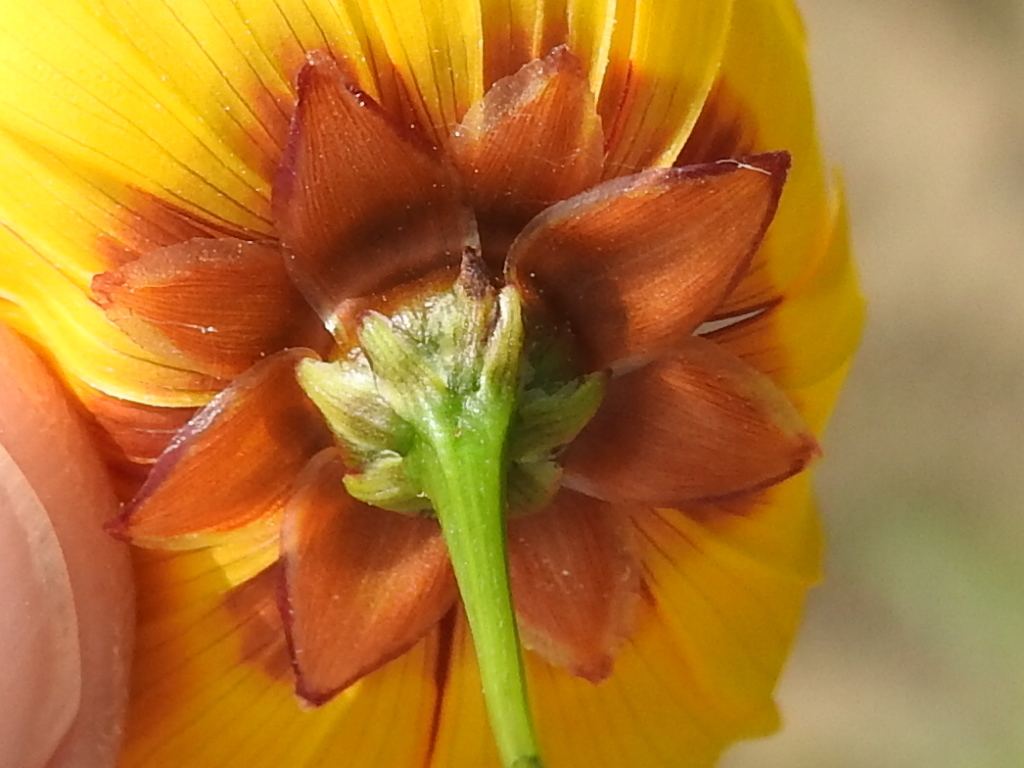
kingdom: Plantae
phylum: Tracheophyta
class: Magnoliopsida
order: Asterales
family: Asteraceae
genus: Coreopsis
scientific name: Coreopsis tinctoria
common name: Garden tickseed
